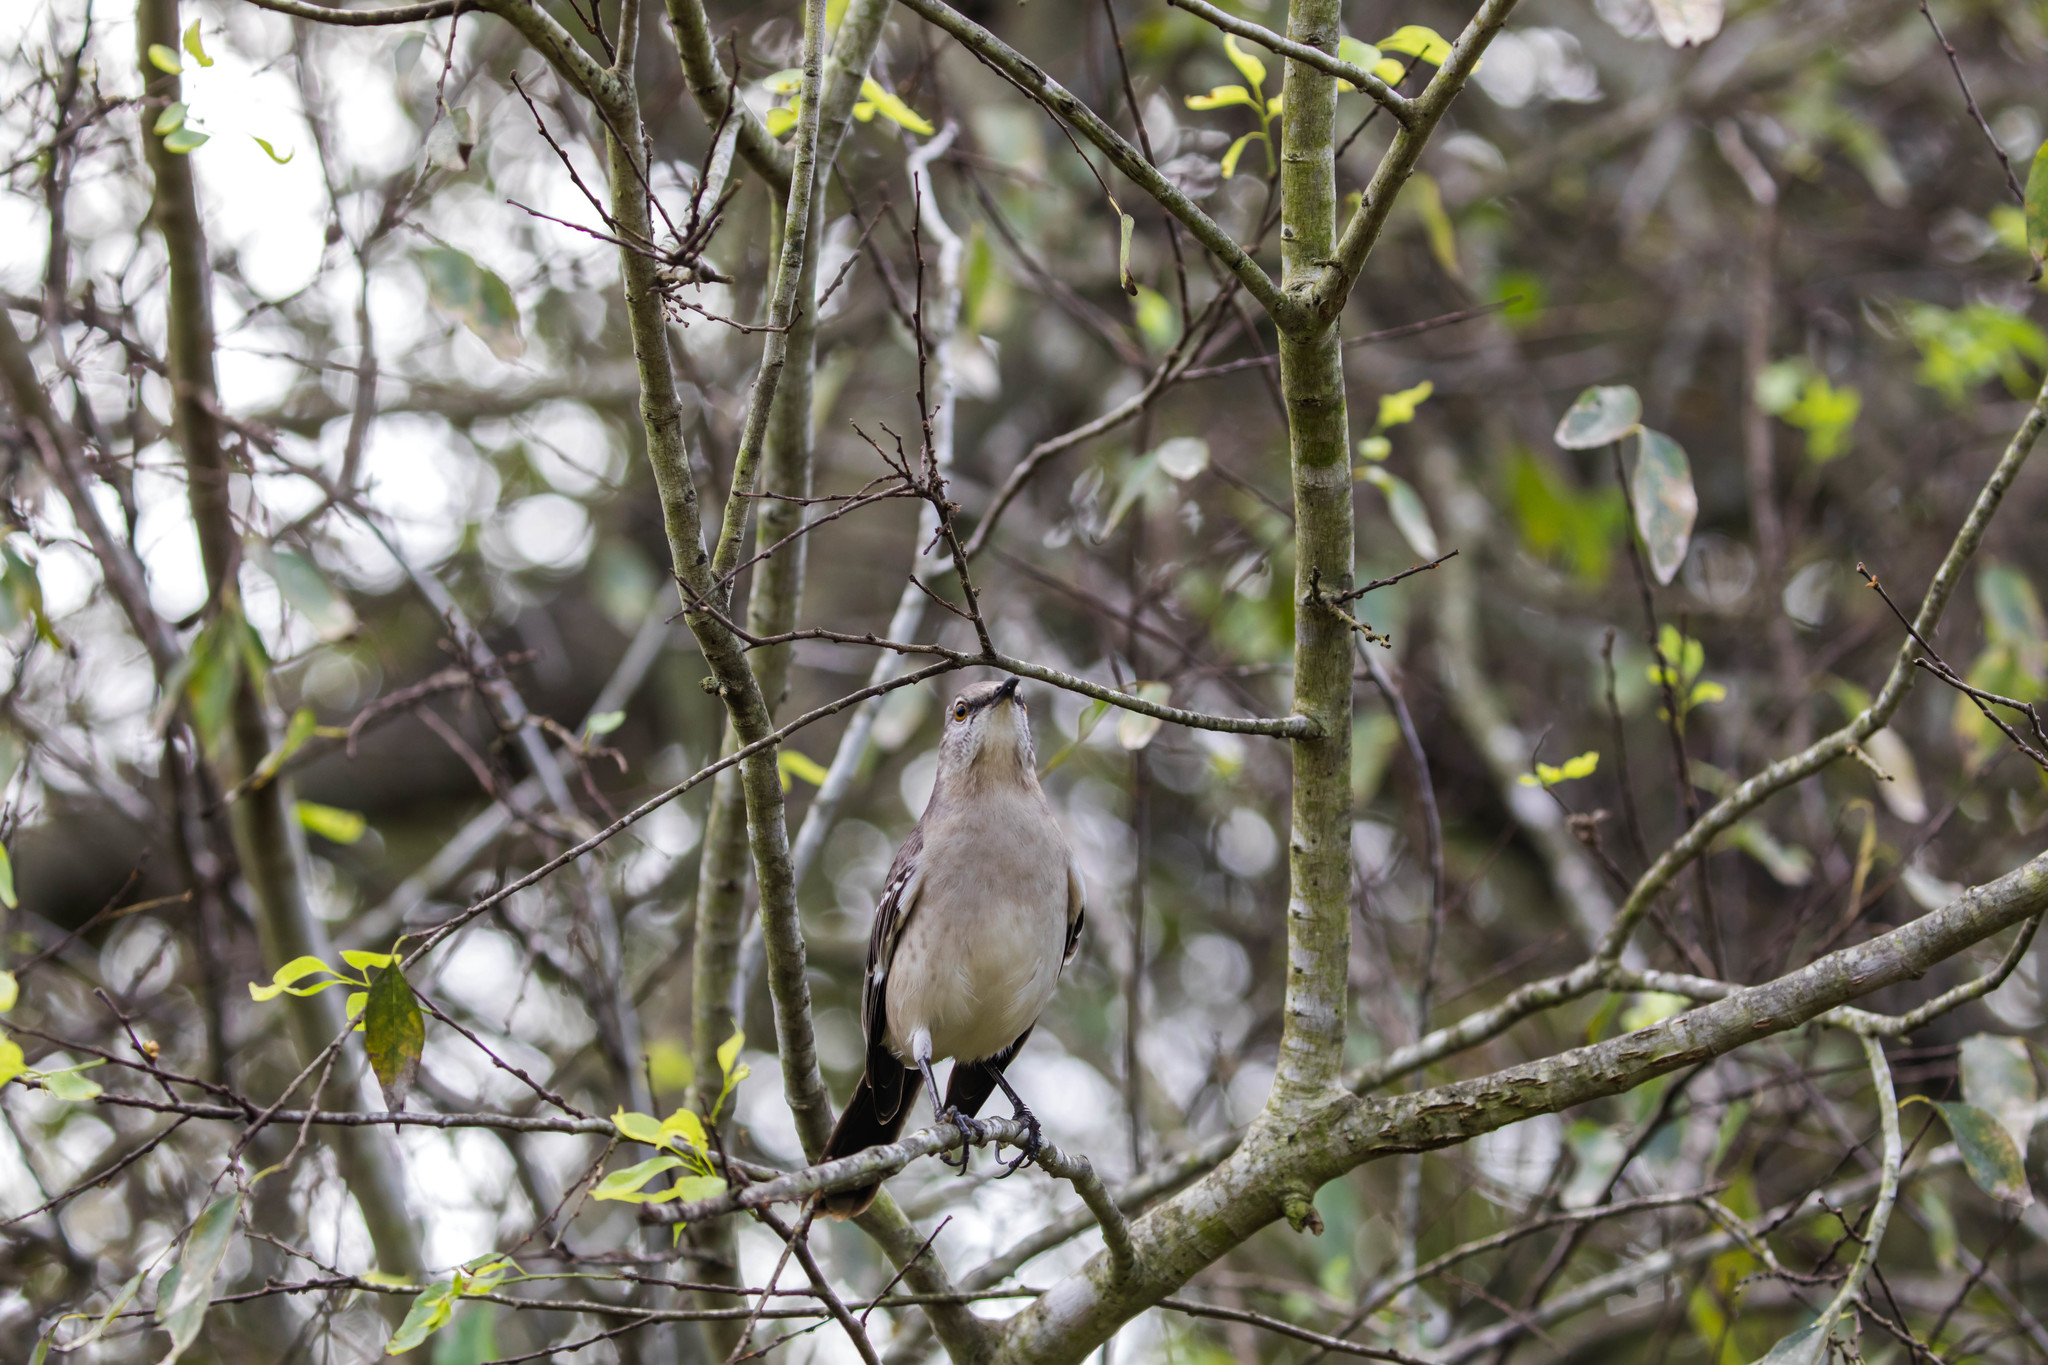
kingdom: Animalia
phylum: Chordata
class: Aves
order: Passeriformes
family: Mimidae
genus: Mimus
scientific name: Mimus polyglottos
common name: Northern mockingbird
